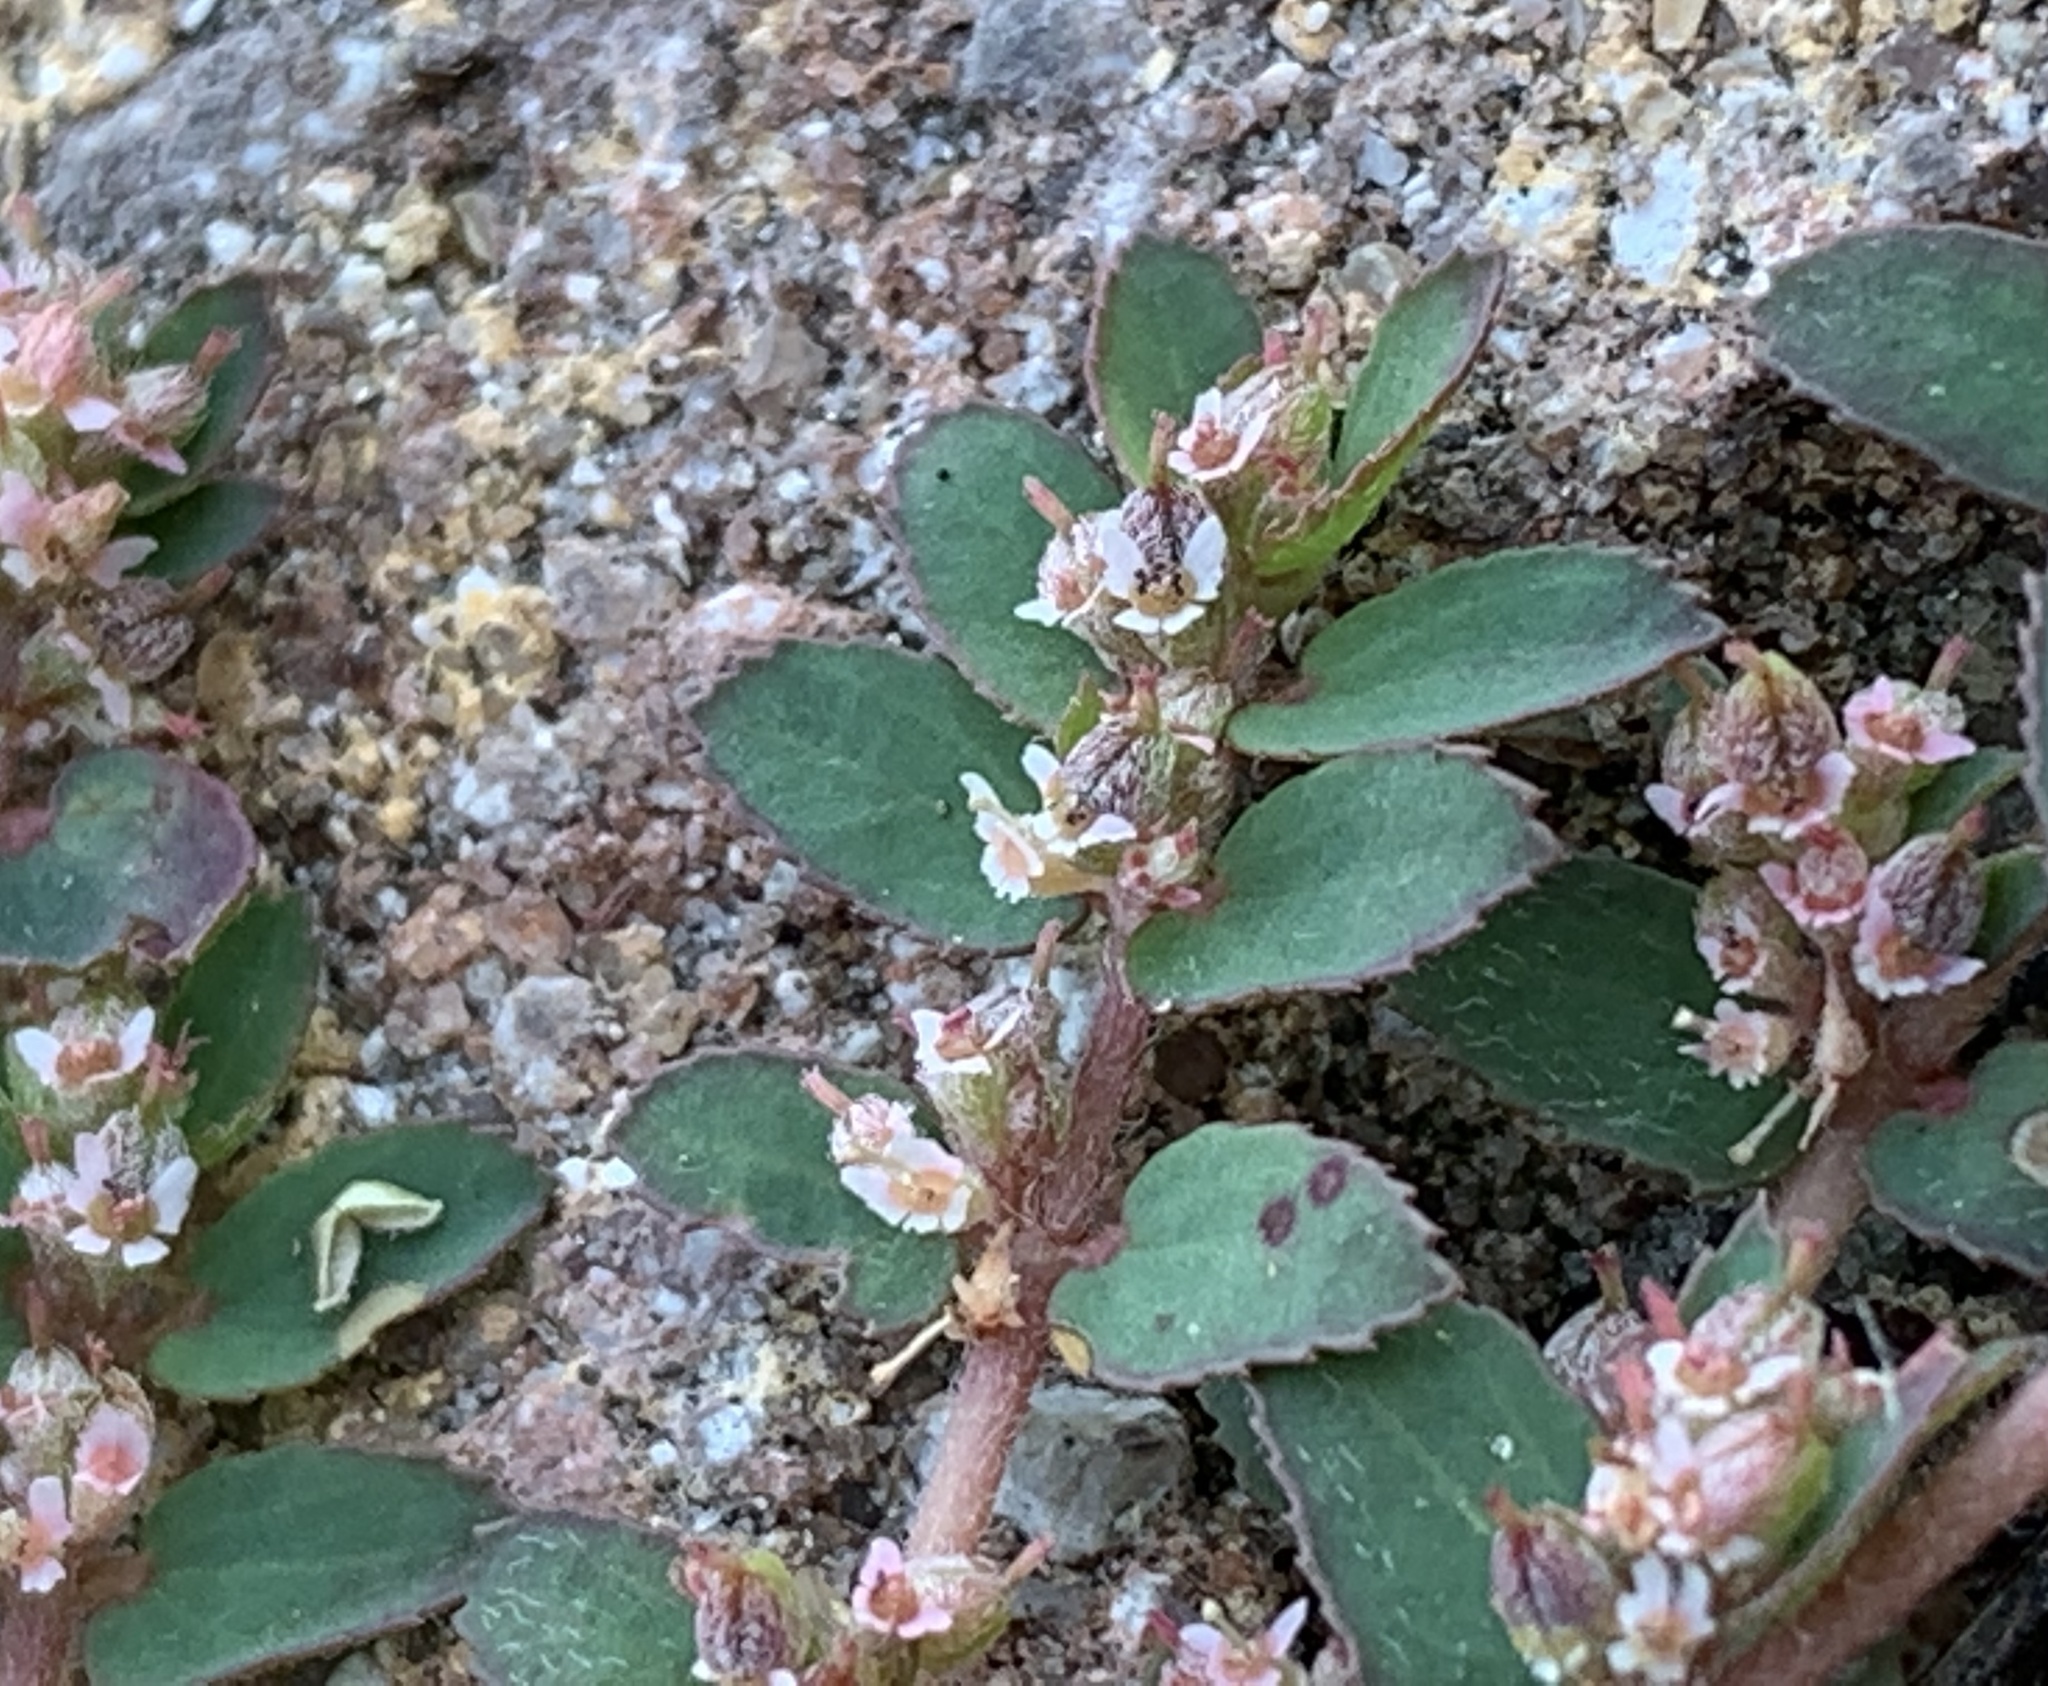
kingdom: Plantae
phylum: Tracheophyta
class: Magnoliopsida
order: Malpighiales
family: Euphorbiaceae
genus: Euphorbia
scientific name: Euphorbia thymifolia
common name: Gulf sandmat
